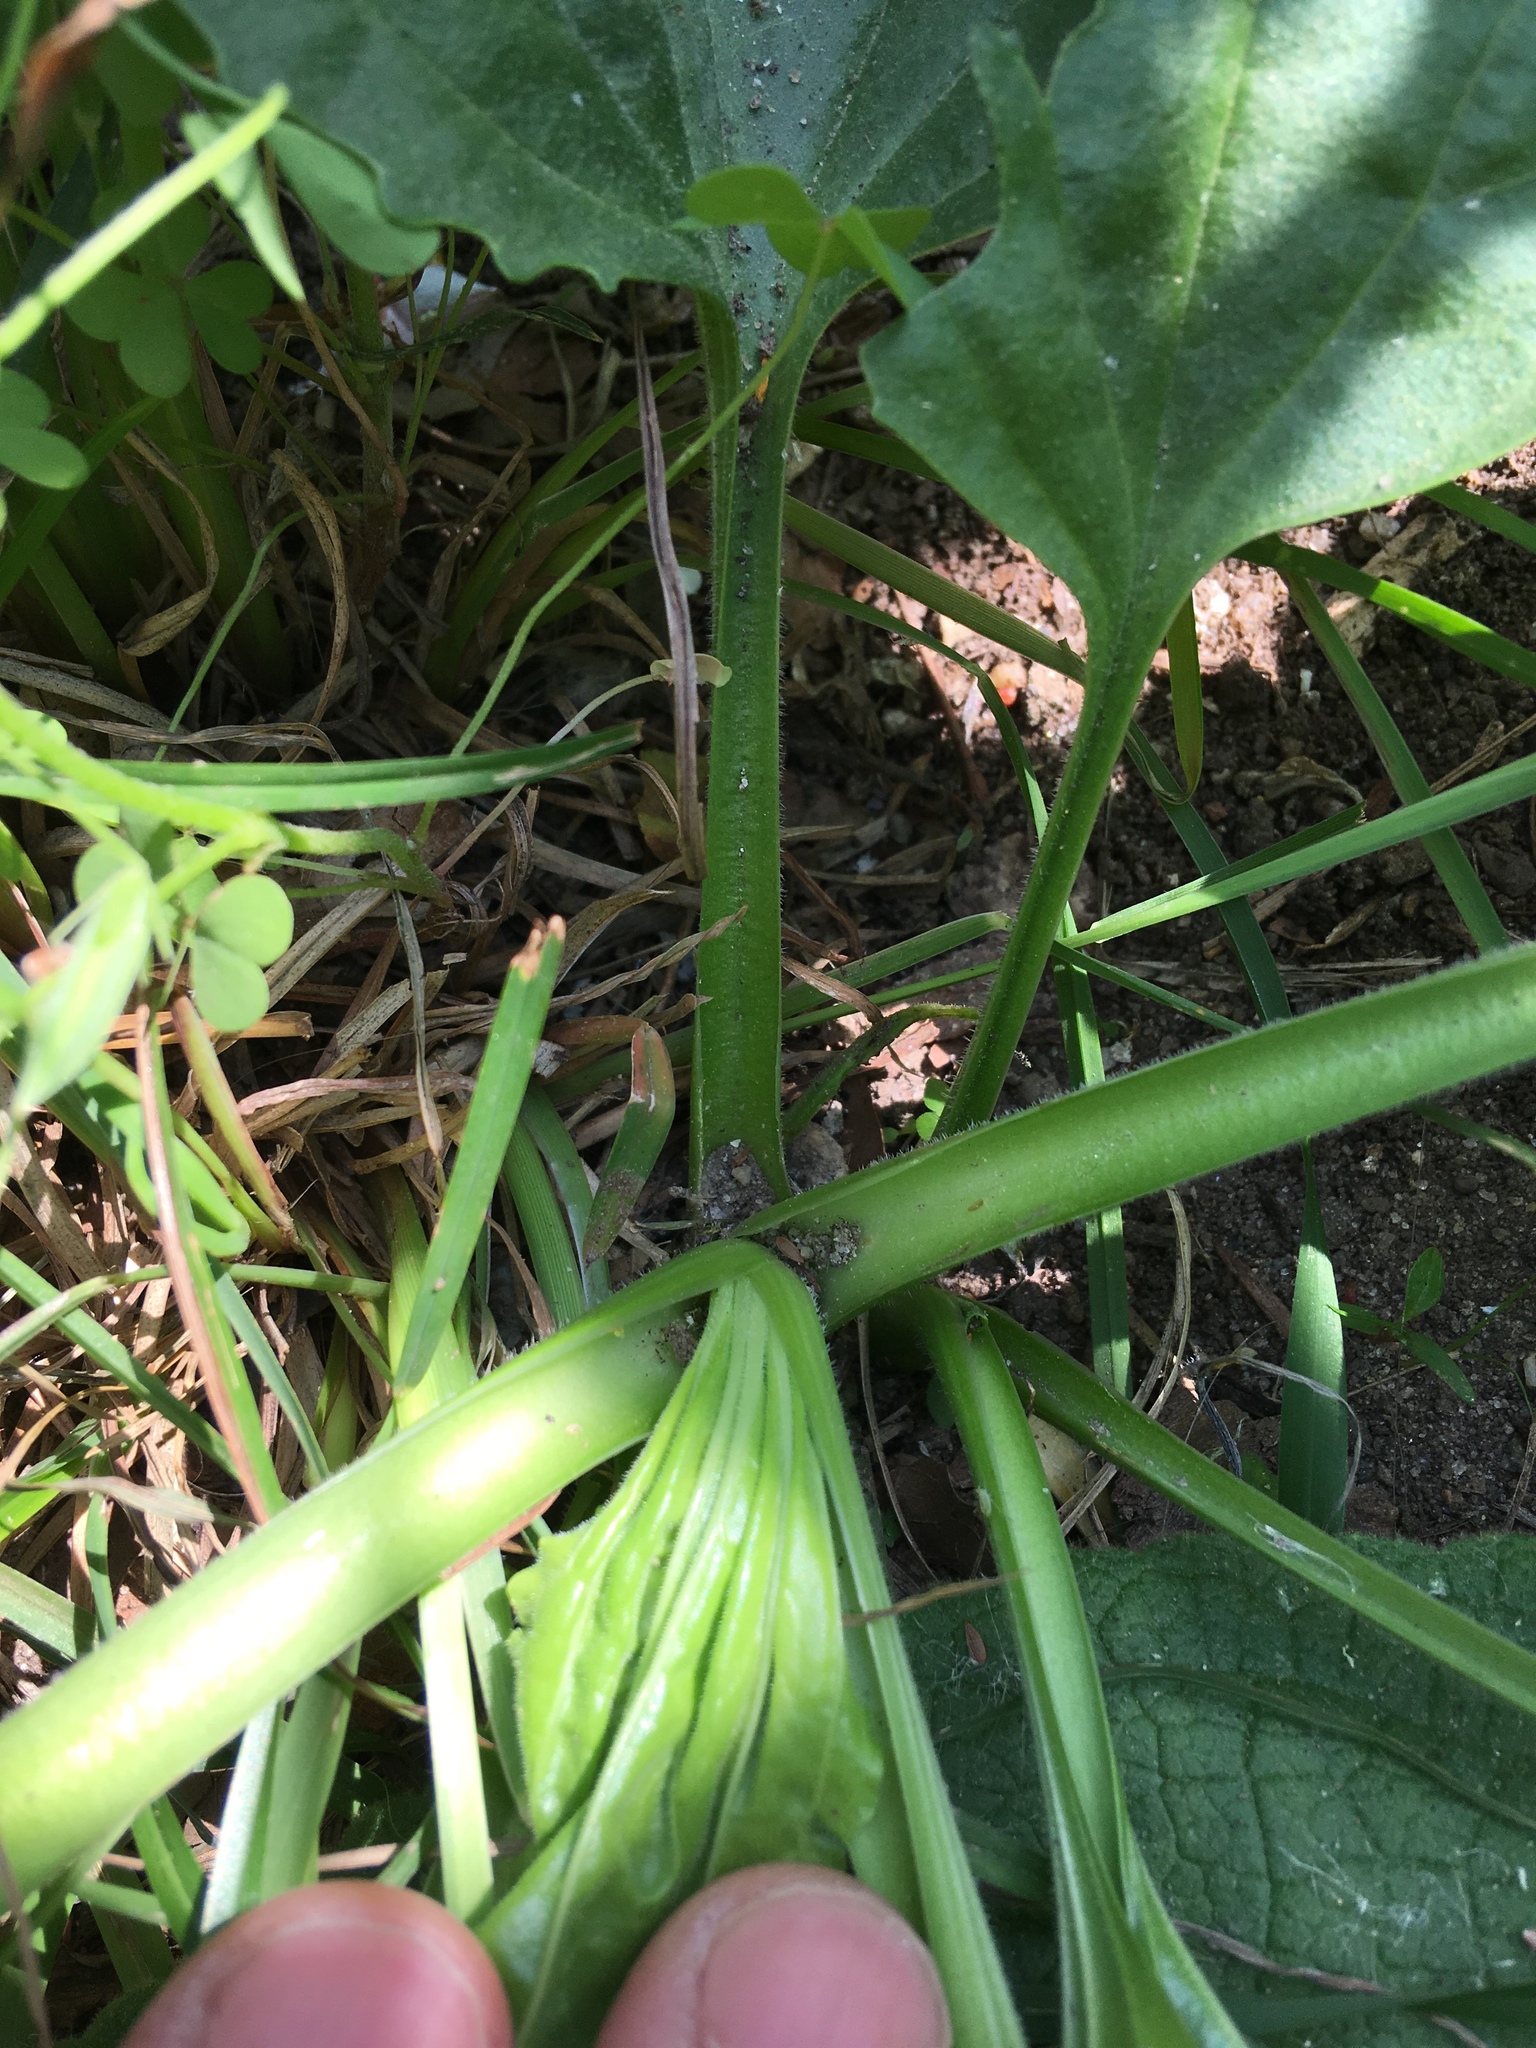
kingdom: Plantae
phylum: Tracheophyta
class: Magnoliopsida
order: Lamiales
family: Plantaginaceae
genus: Plantago
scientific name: Plantago major
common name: Common plantain
